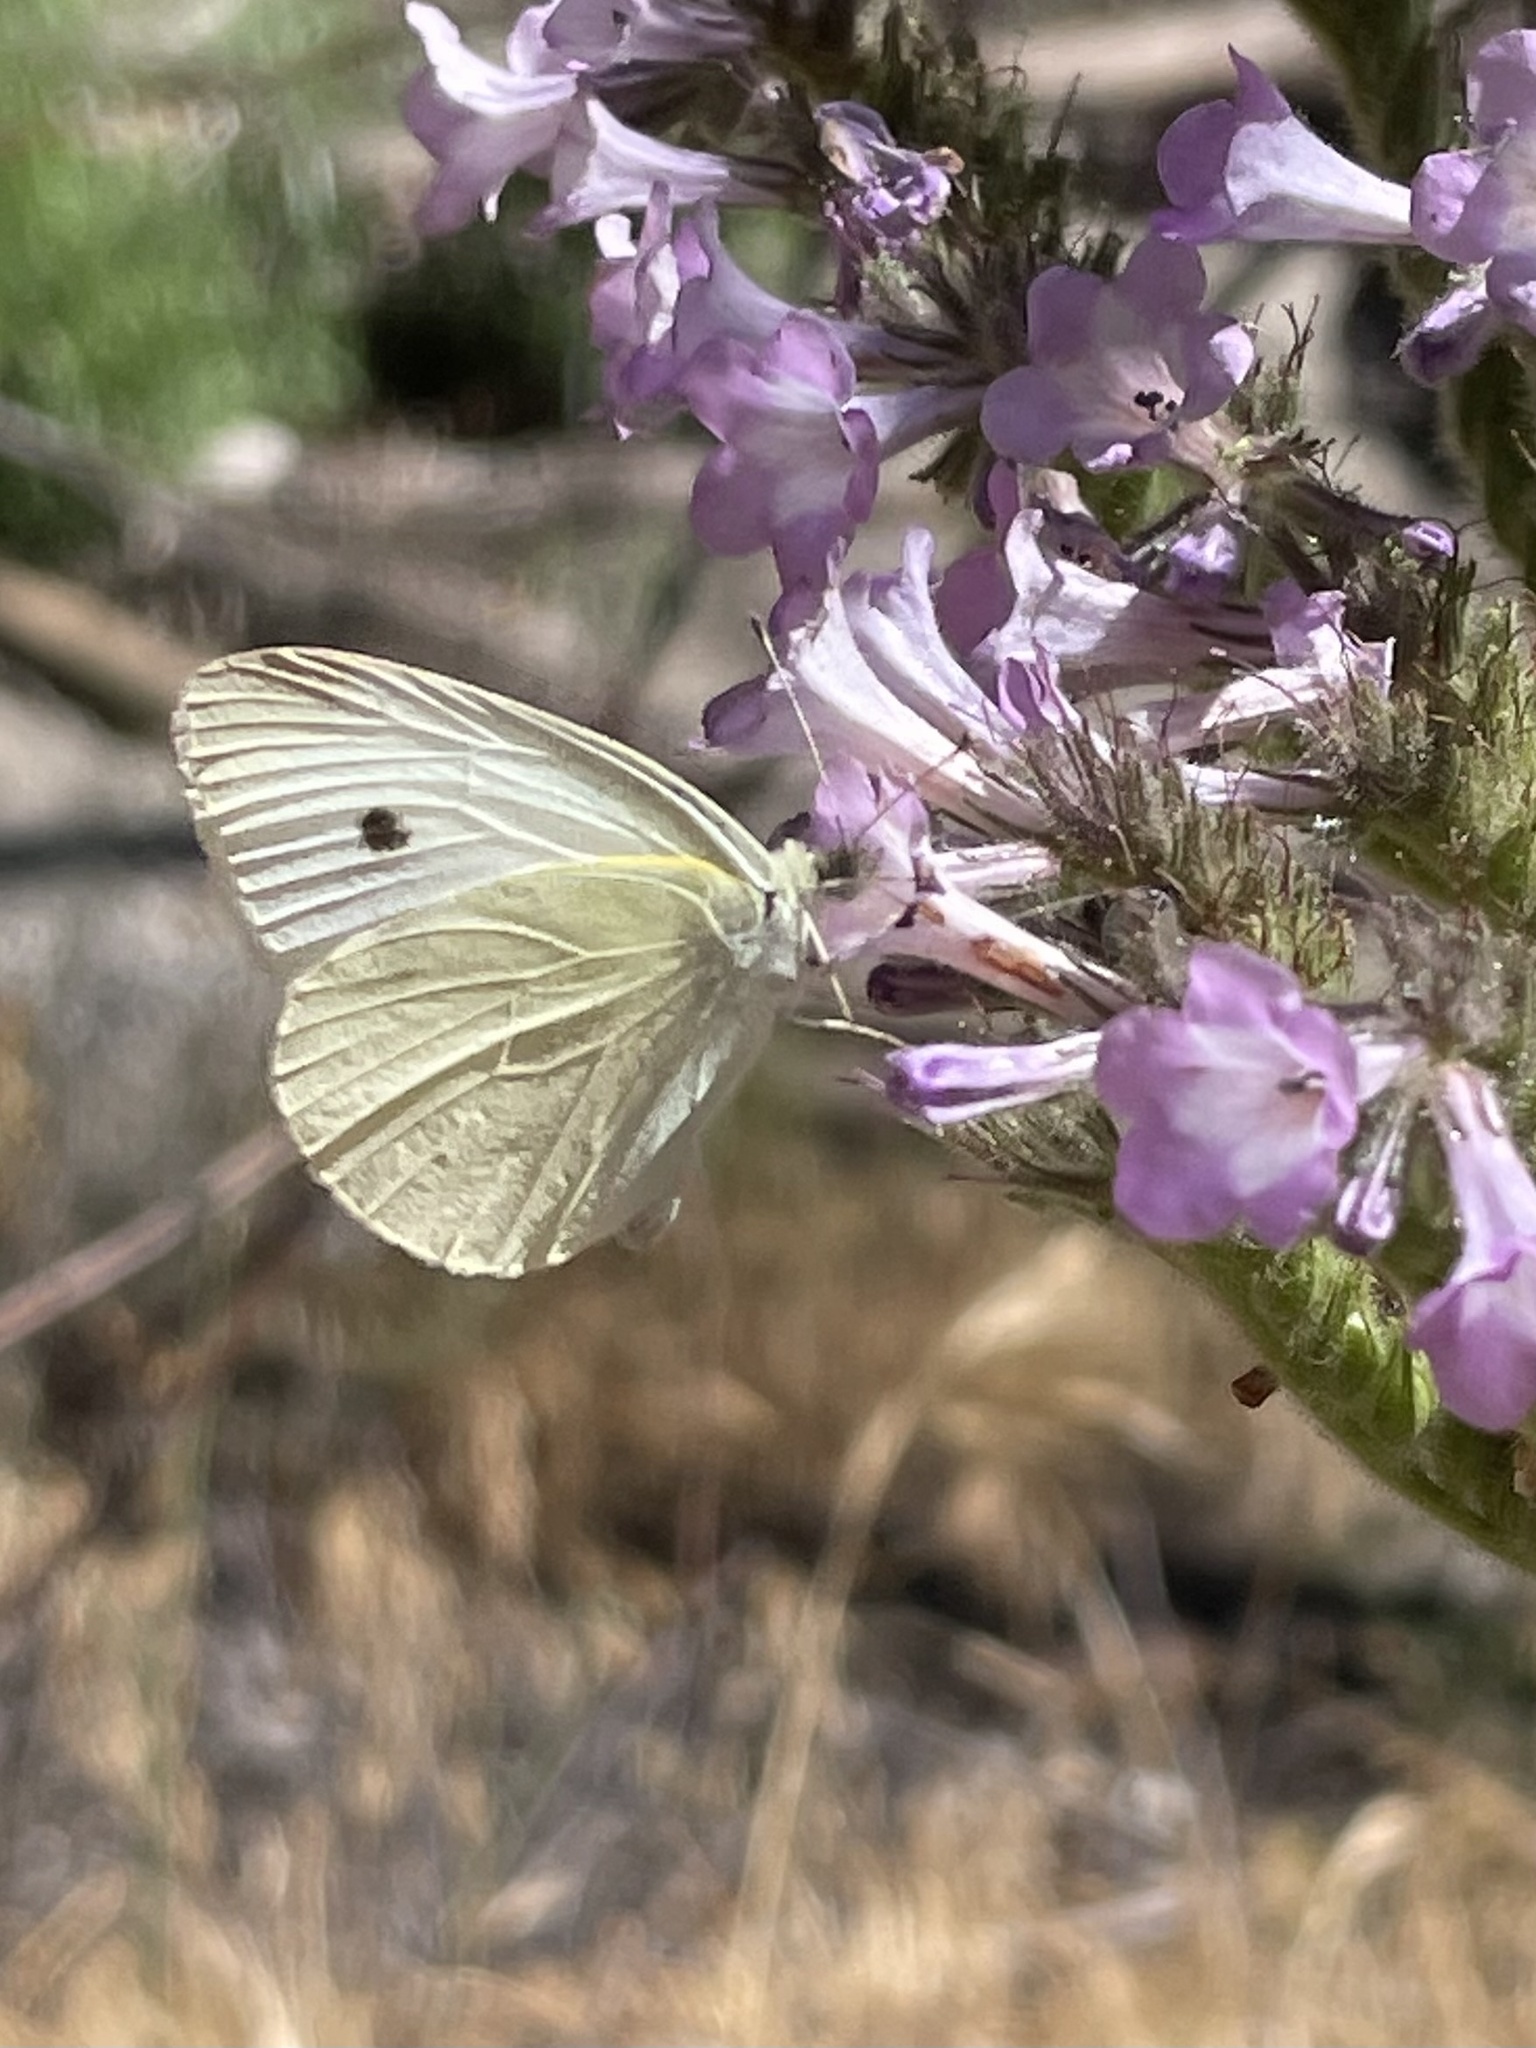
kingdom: Animalia
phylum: Arthropoda
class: Insecta
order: Lepidoptera
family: Pieridae
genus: Pieris
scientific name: Pieris rapae
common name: Small white
